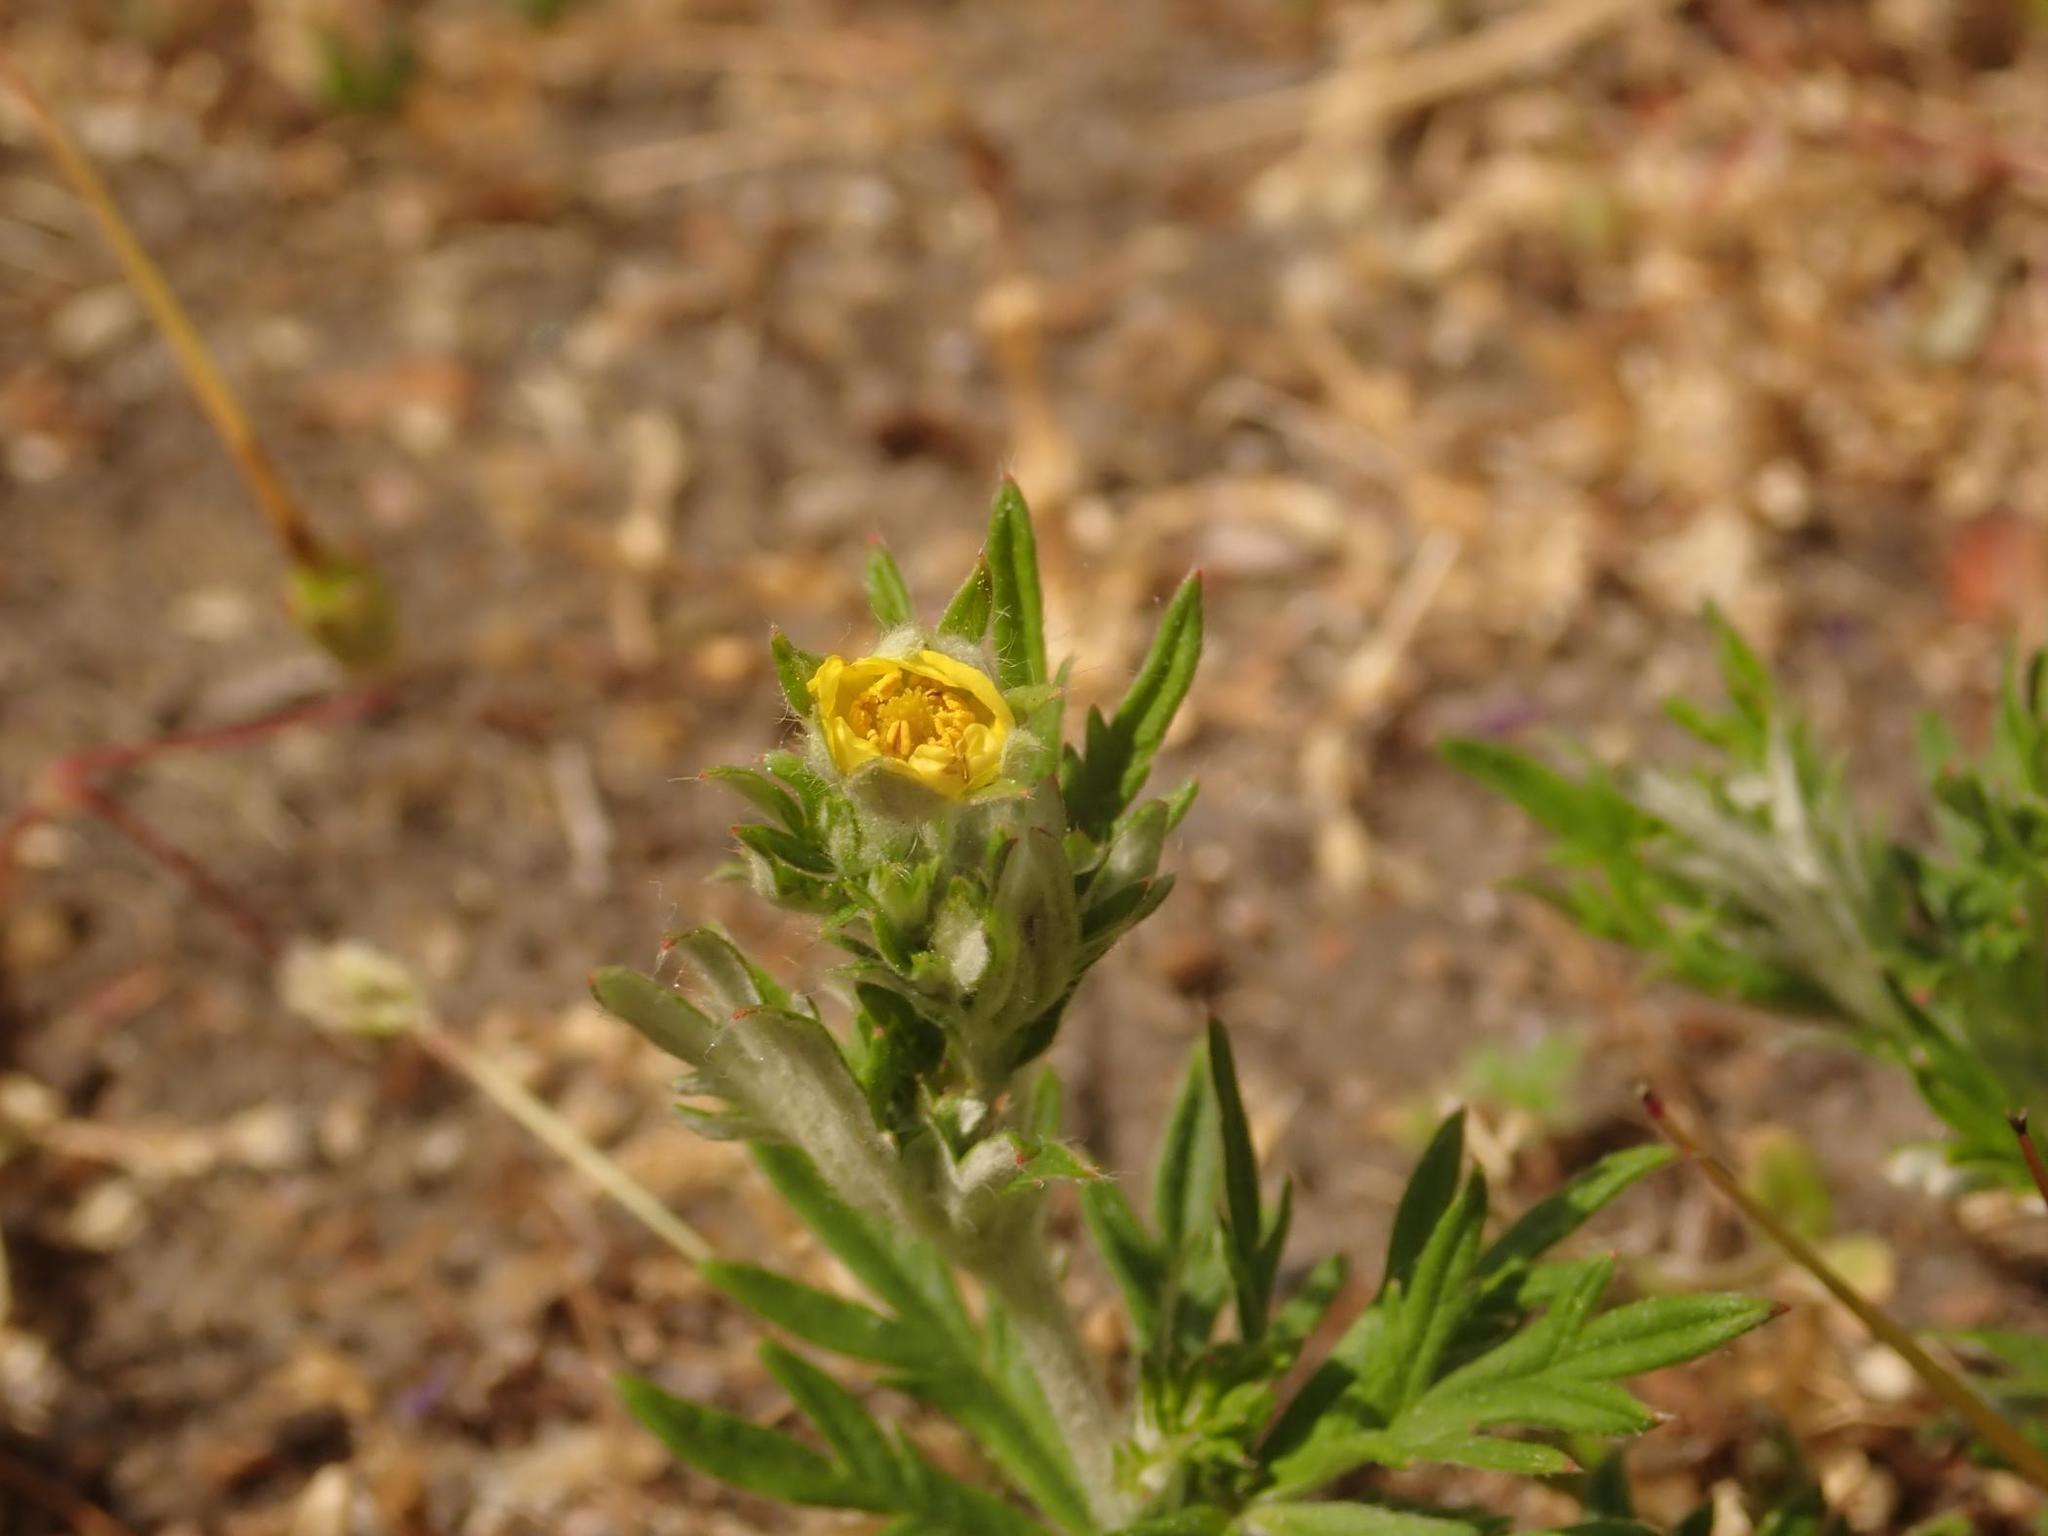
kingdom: Plantae
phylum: Tracheophyta
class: Magnoliopsida
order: Rosales
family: Rosaceae
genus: Potentilla
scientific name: Potentilla argentea
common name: Hoary cinquefoil
